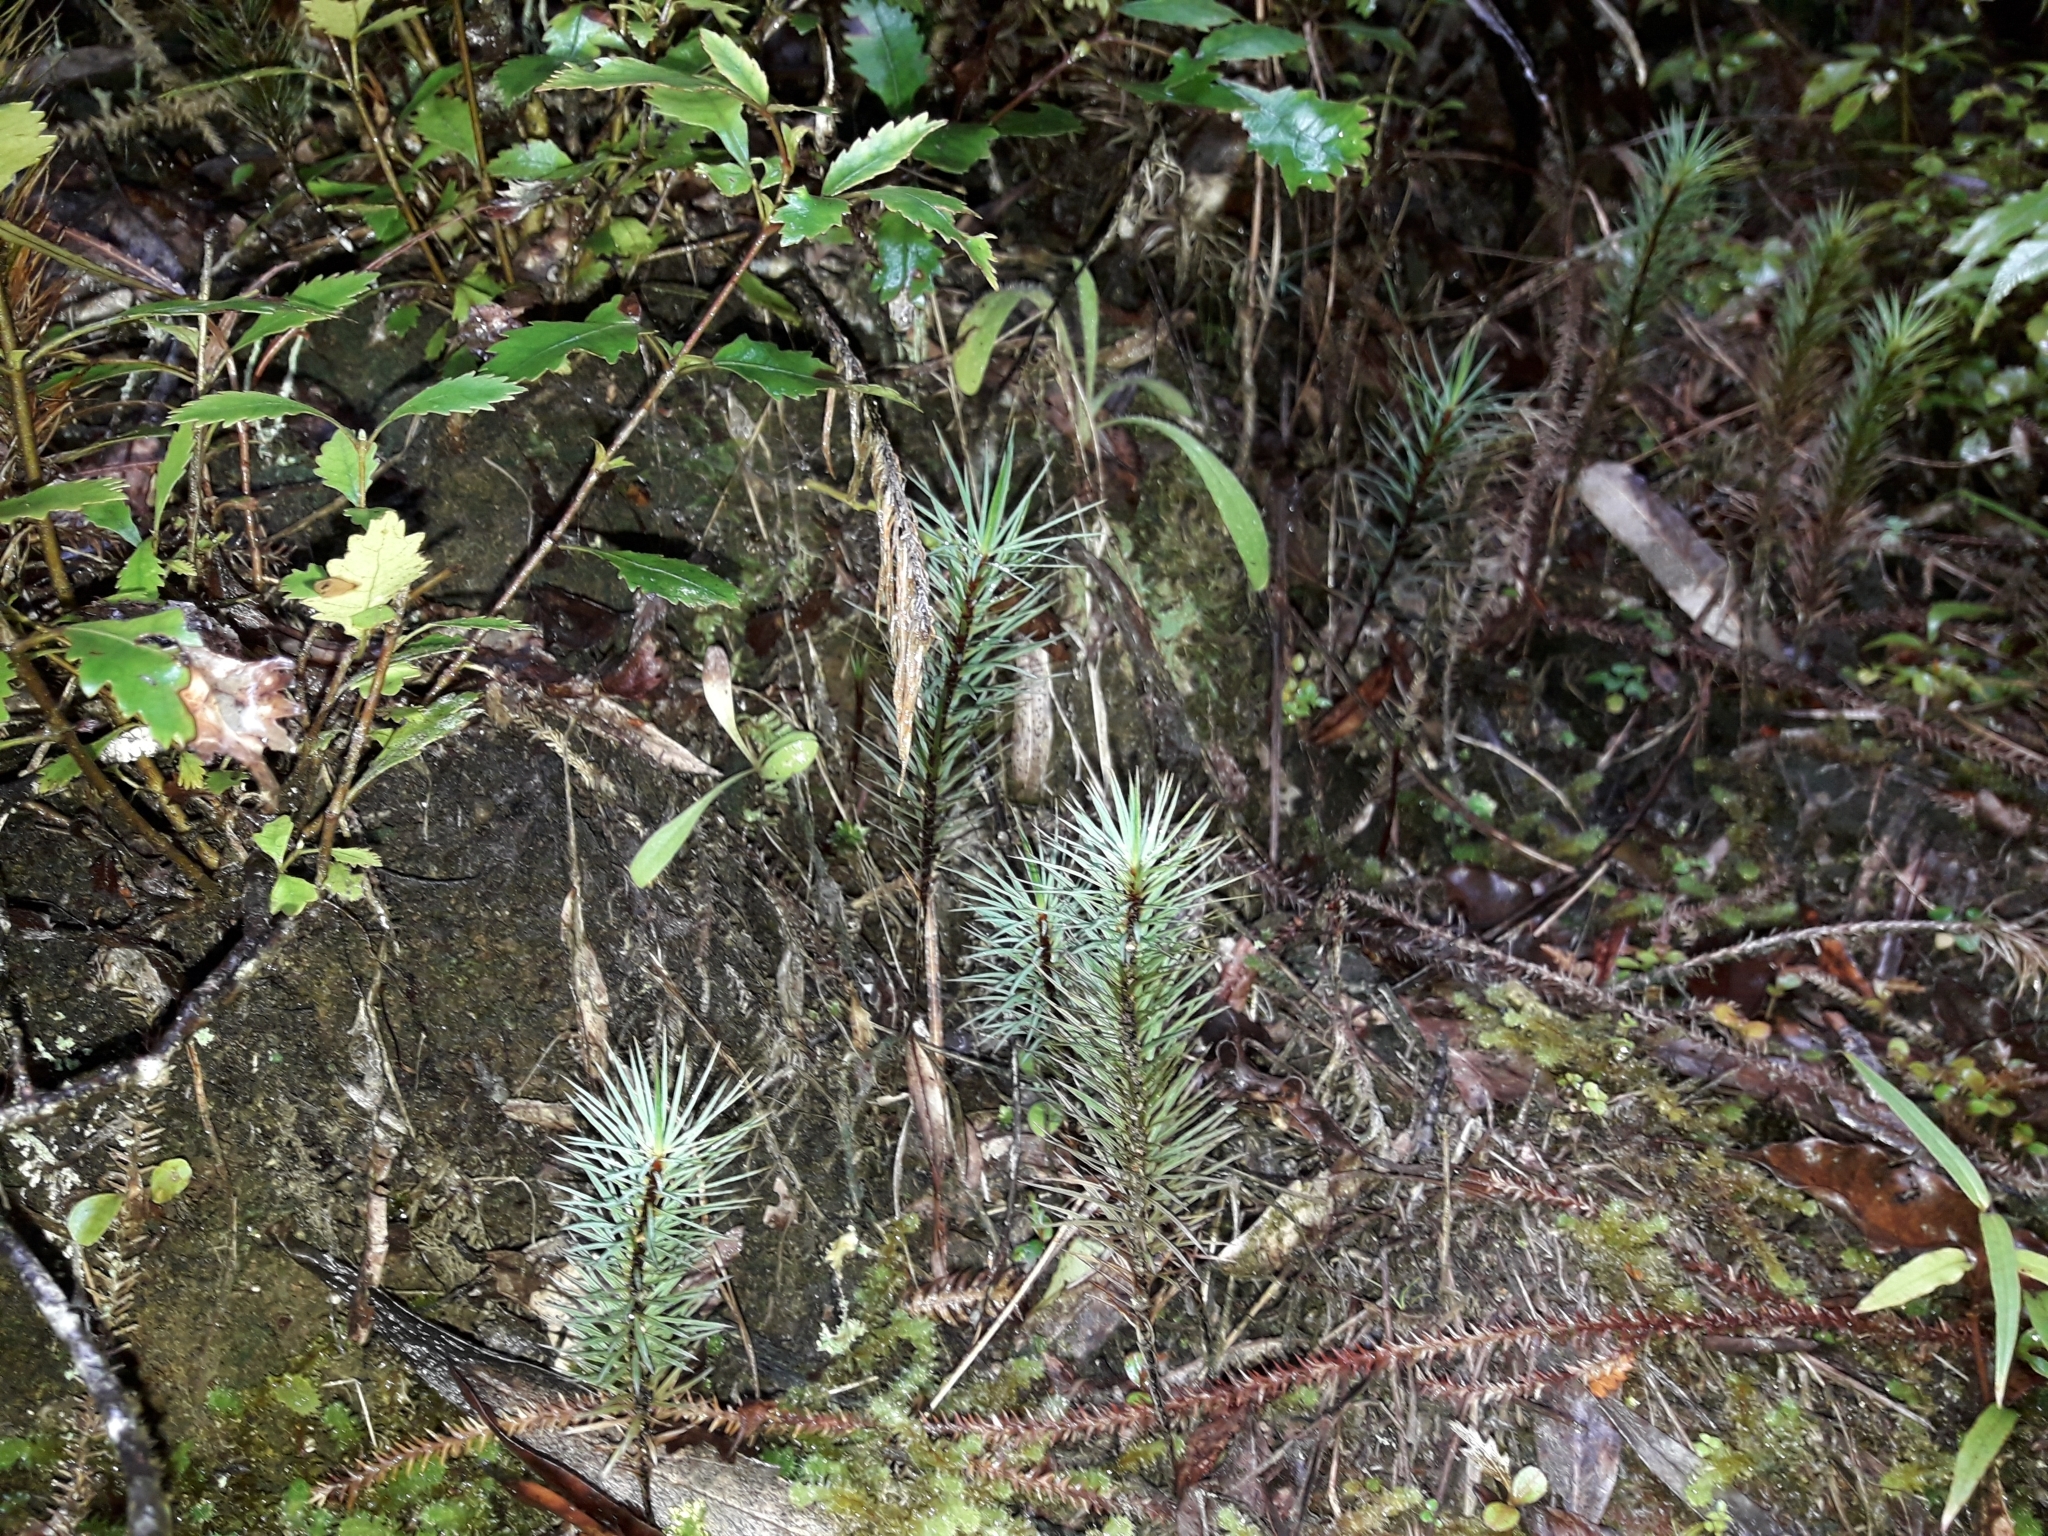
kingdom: Plantae
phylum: Bryophyta
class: Polytrichopsida
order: Polytrichales
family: Polytrichaceae
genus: Dawsonia
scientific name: Dawsonia superba
